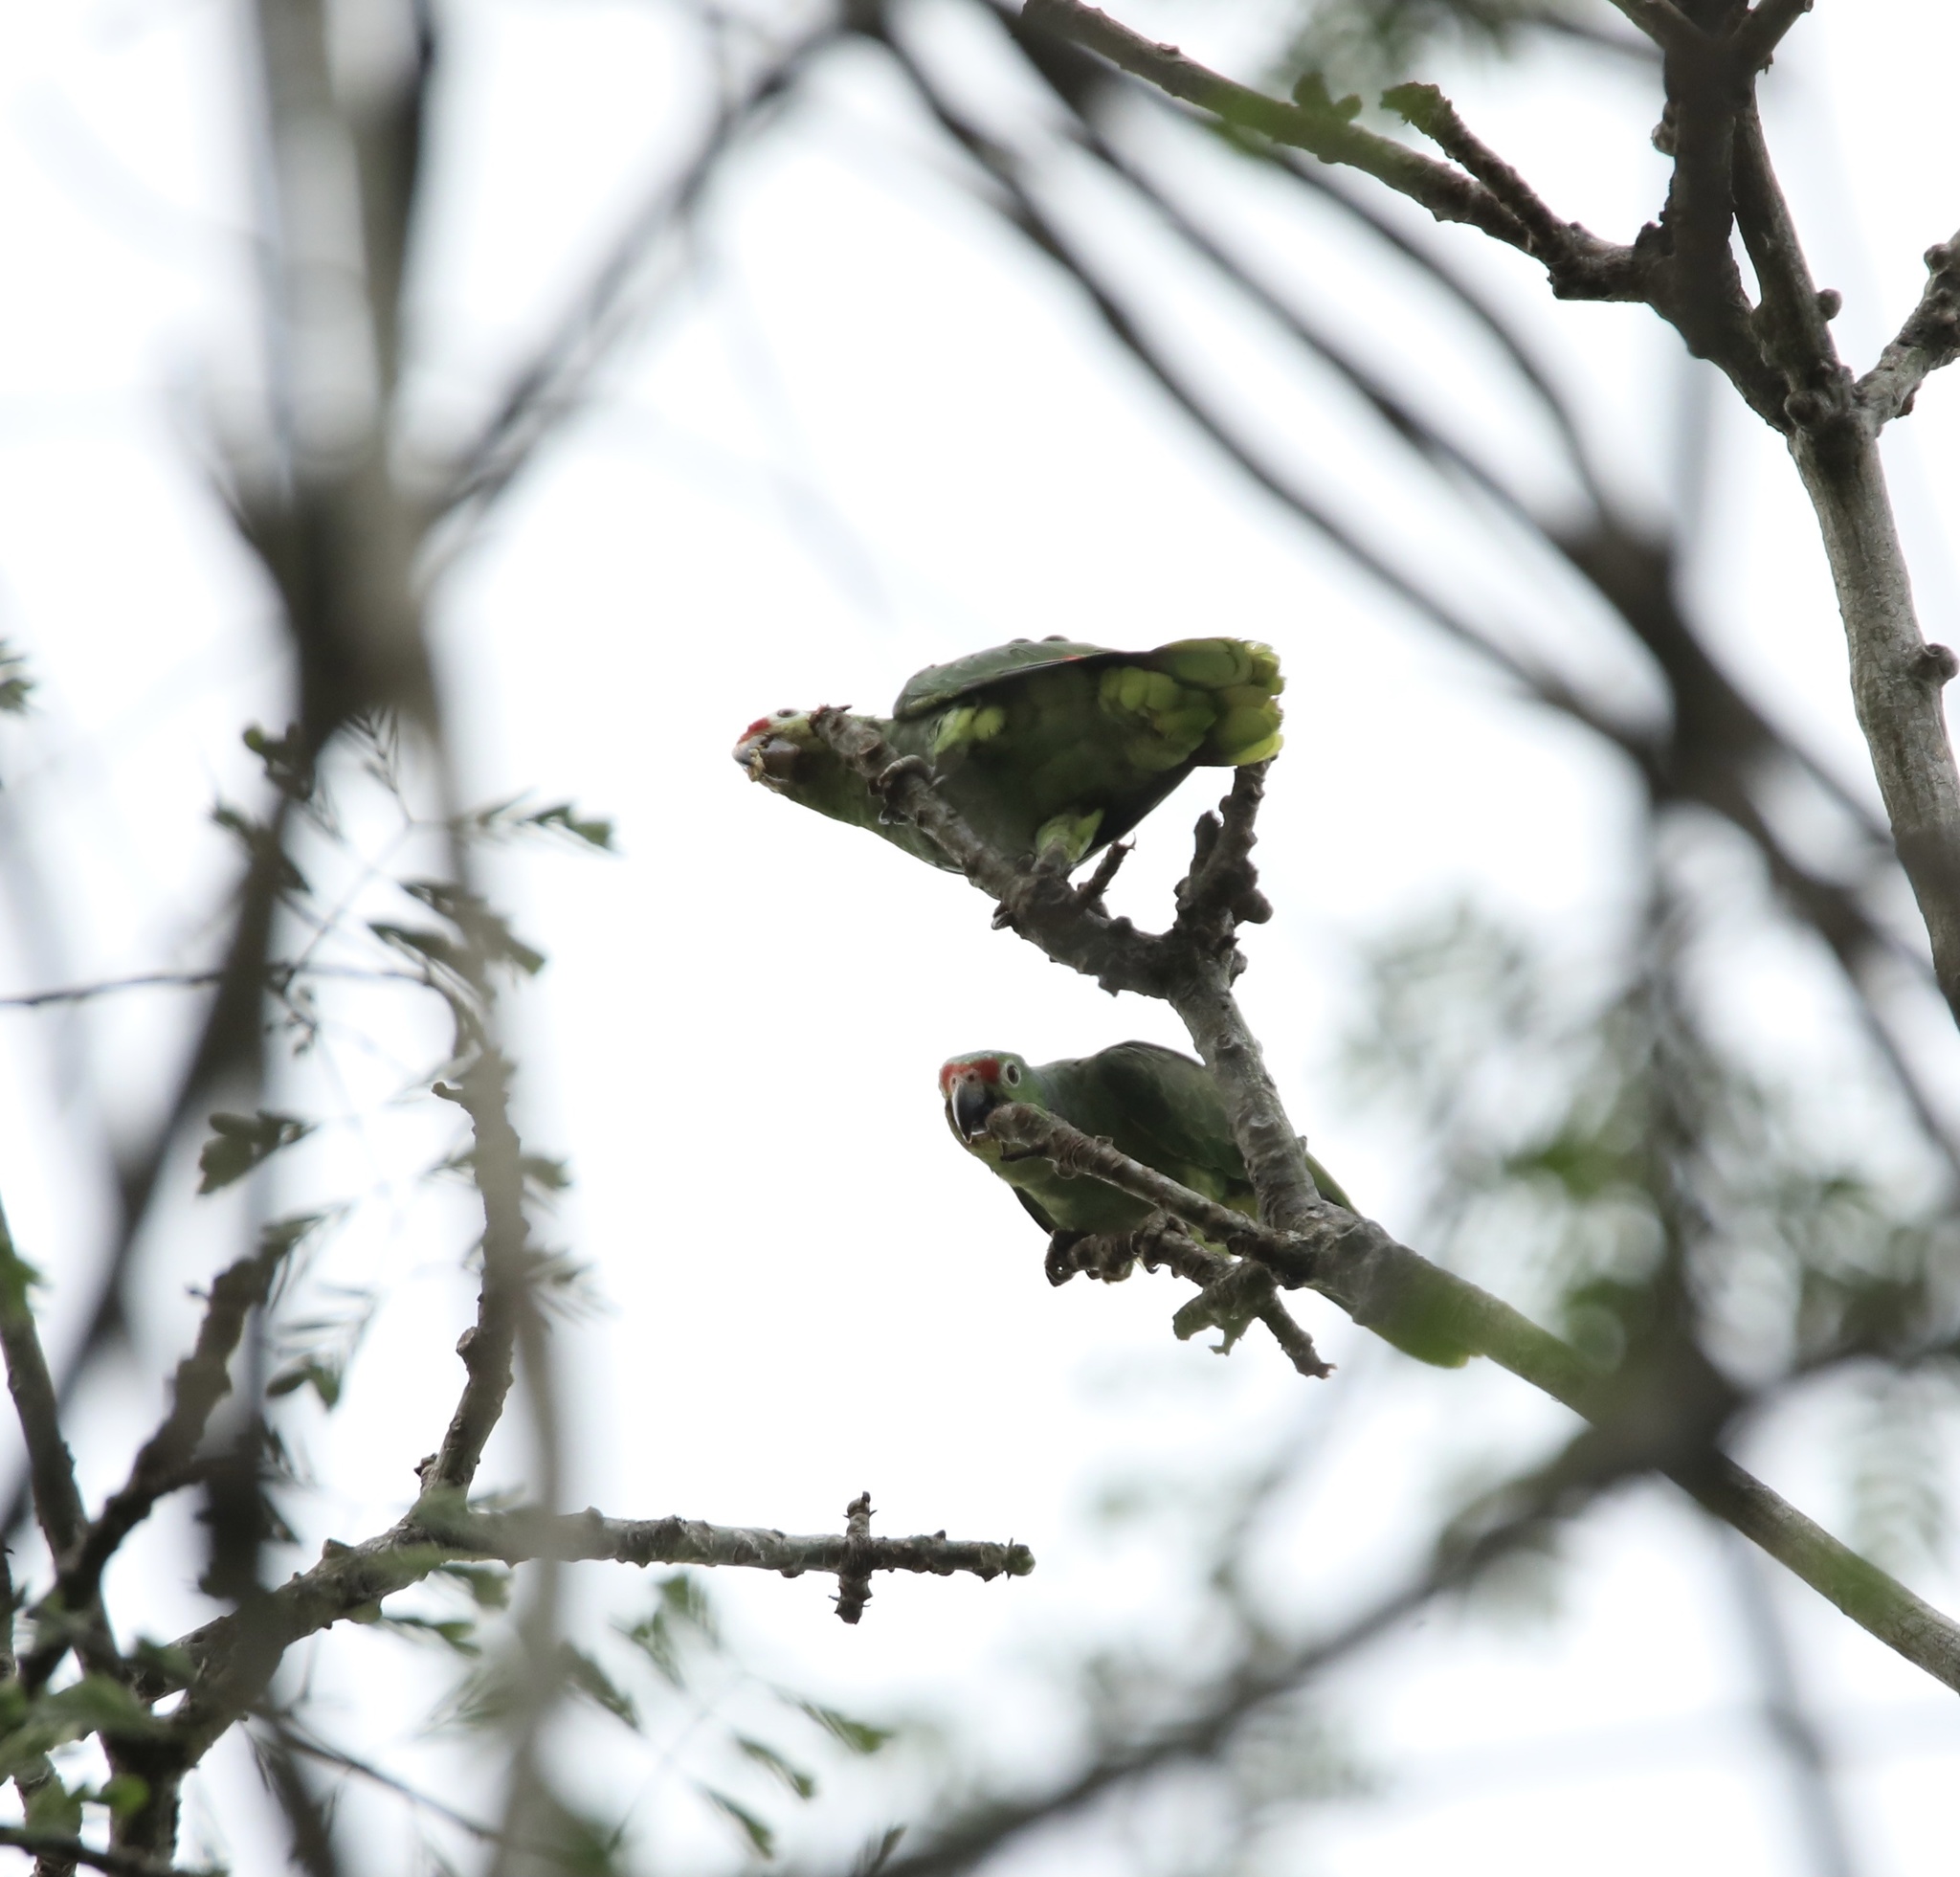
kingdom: Animalia
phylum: Chordata
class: Aves
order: Psittaciformes
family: Psittacidae
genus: Amazona
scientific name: Amazona autumnalis
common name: Red-lored amazon
